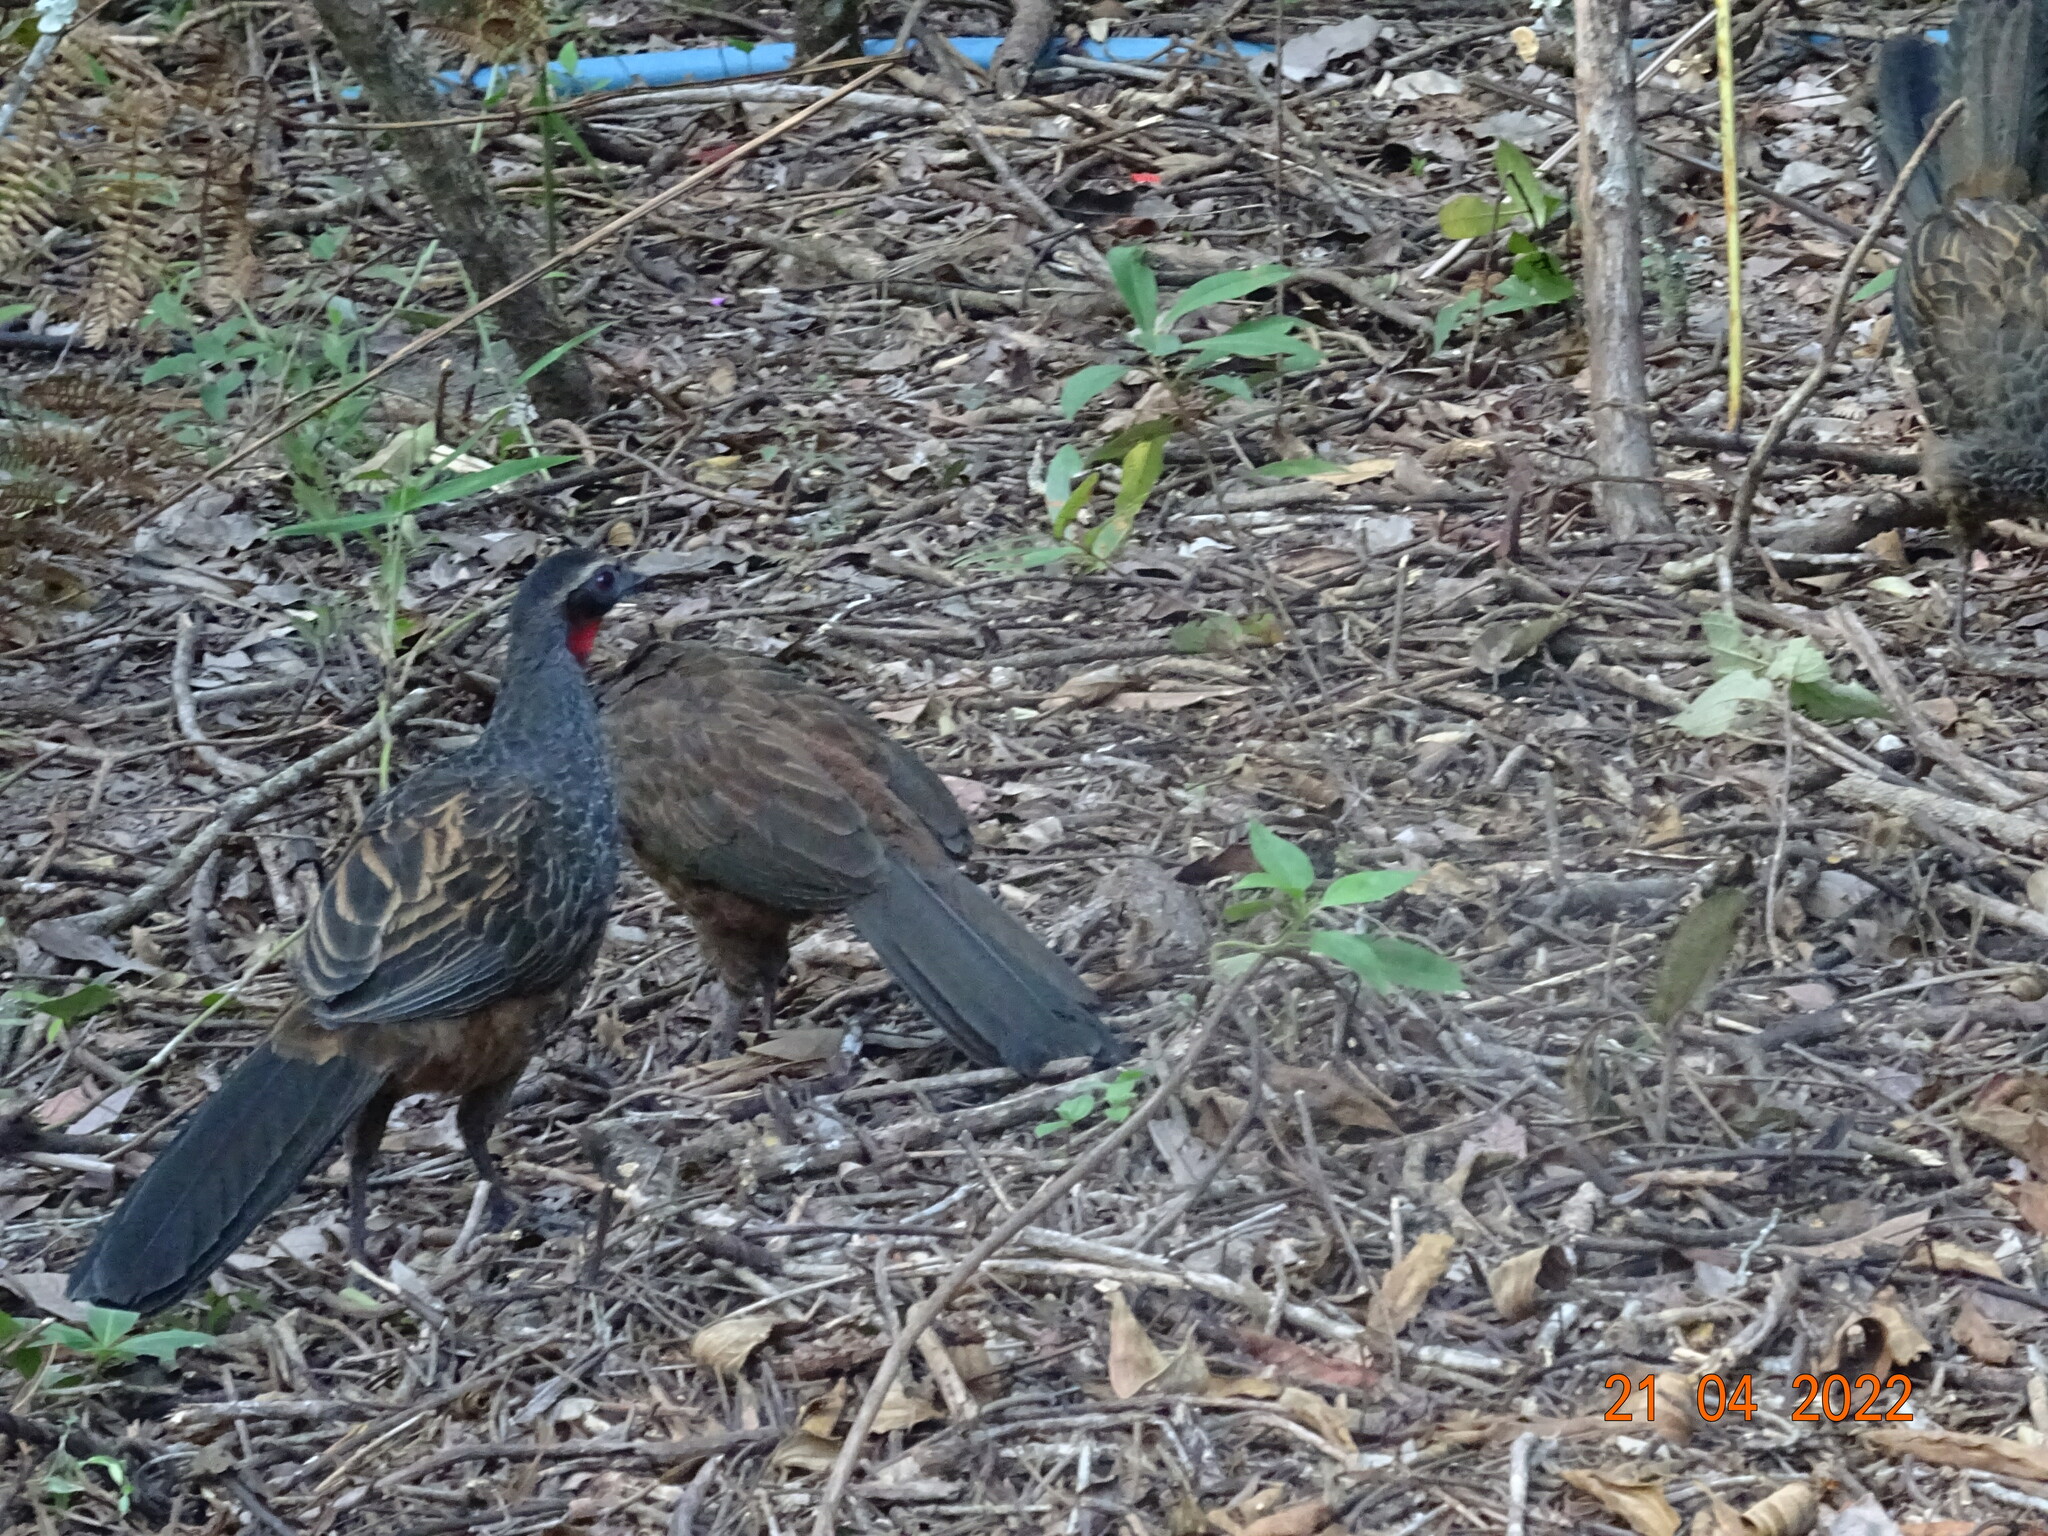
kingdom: Animalia
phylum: Chordata
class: Aves
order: Galliformes
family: Cracidae
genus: Penelope
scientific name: Penelope superciliaris
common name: Rusty-margined guan
